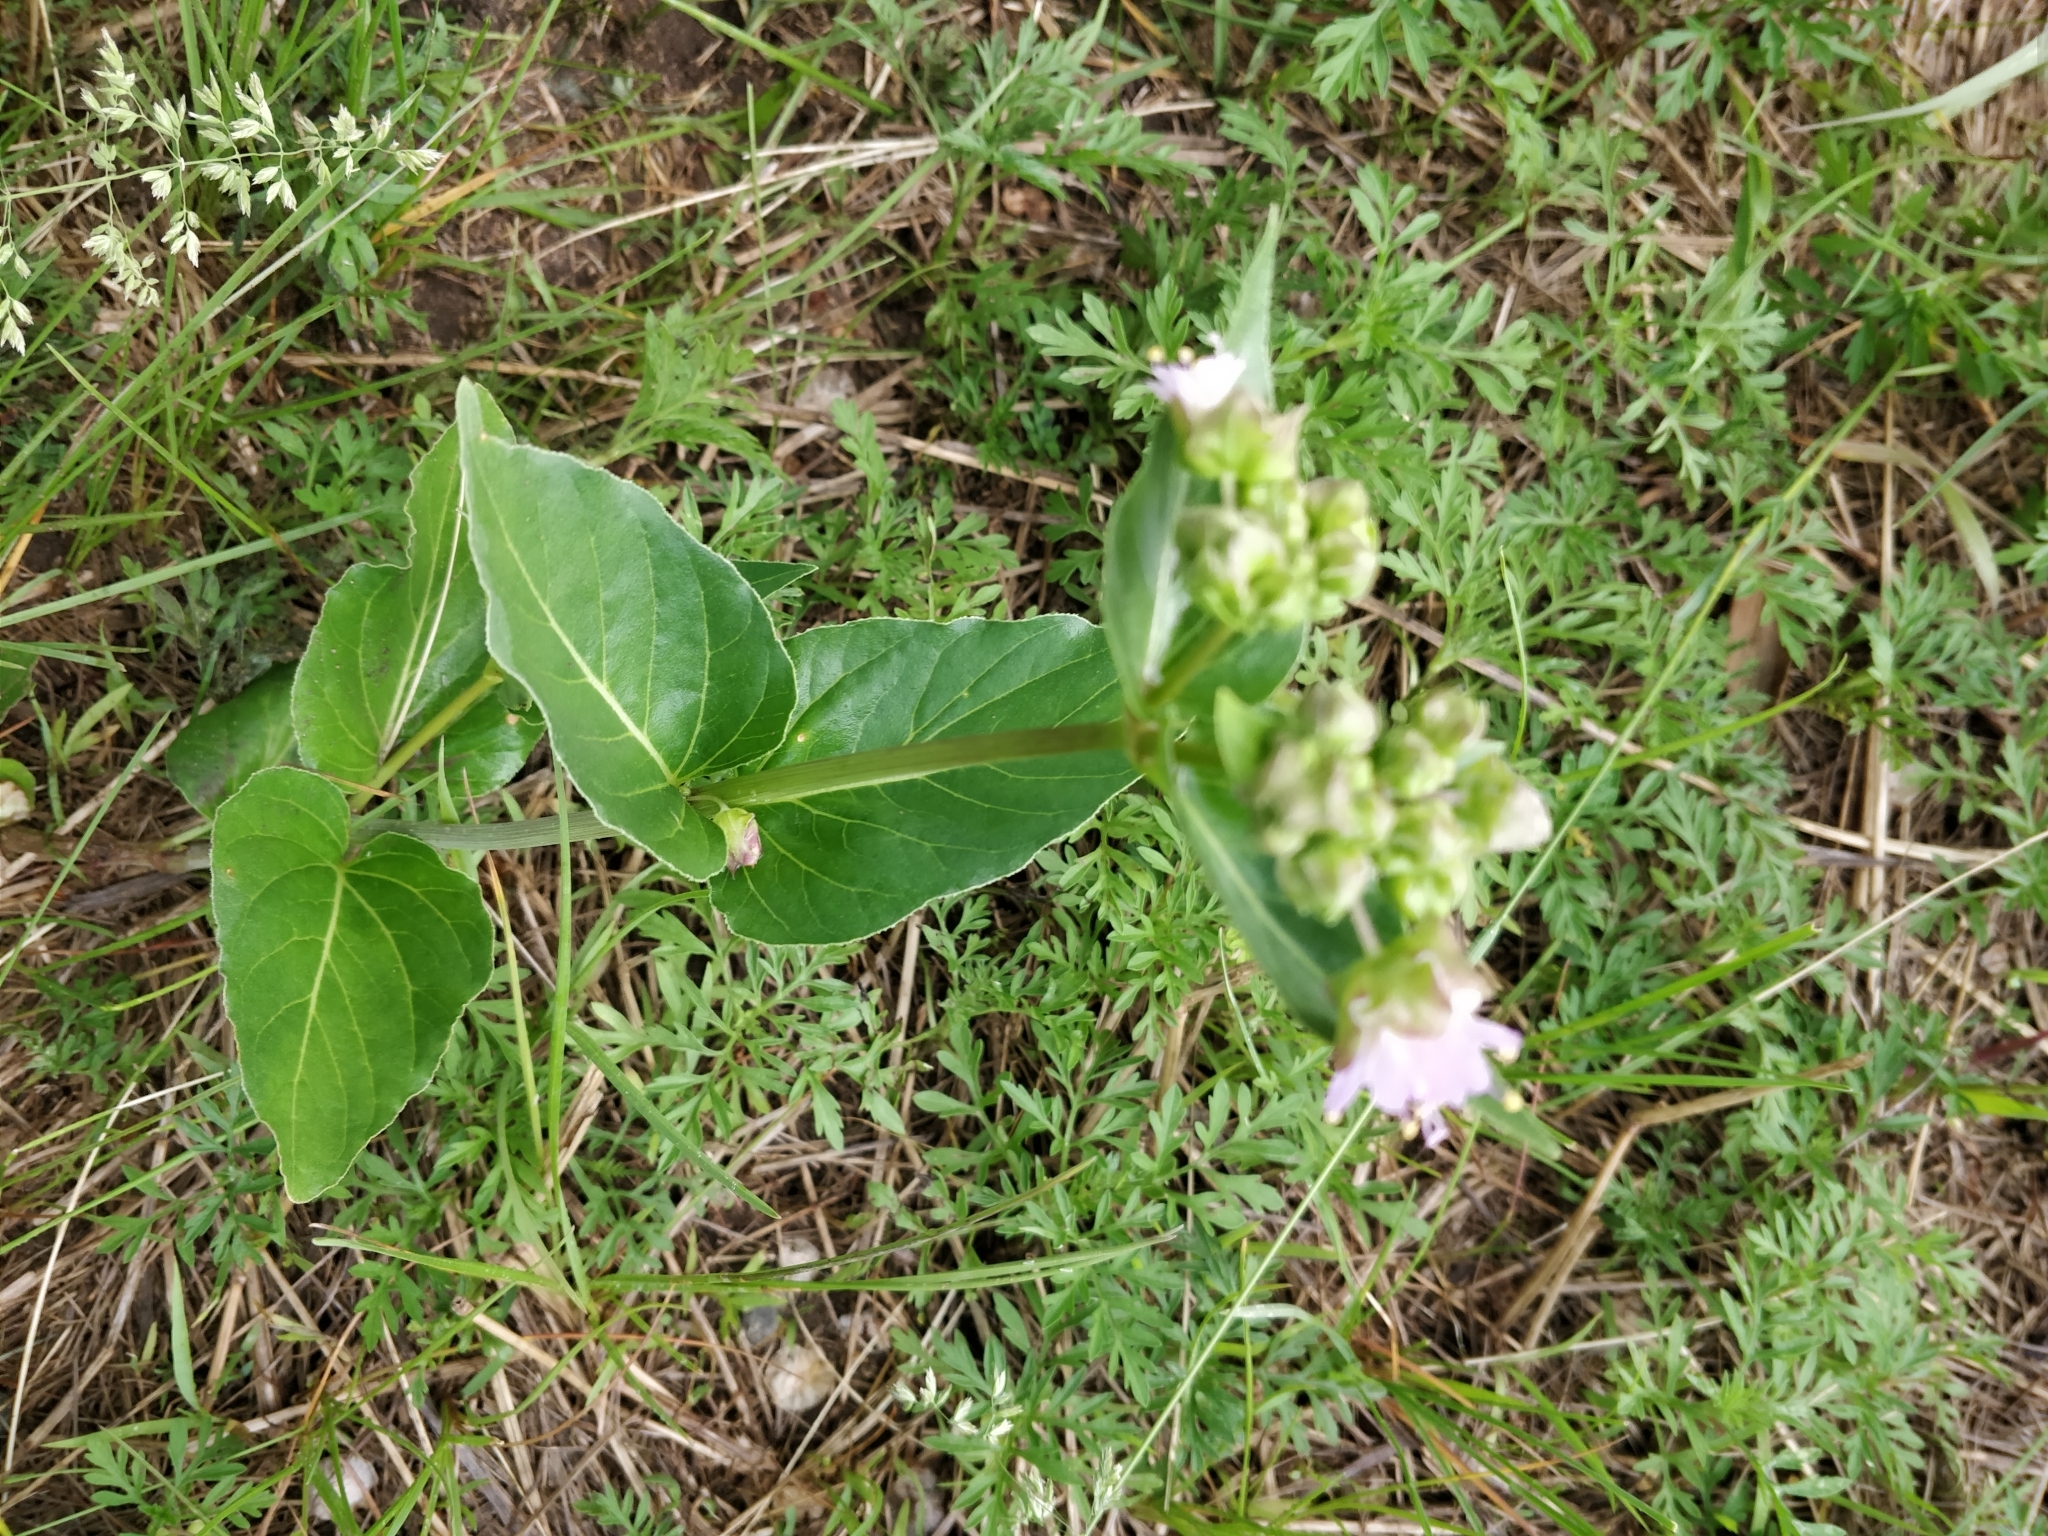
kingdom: Plantae
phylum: Tracheophyta
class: Magnoliopsida
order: Caryophyllales
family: Nyctaginaceae
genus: Mirabilis
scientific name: Mirabilis nyctaginea
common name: Umbrella wort
